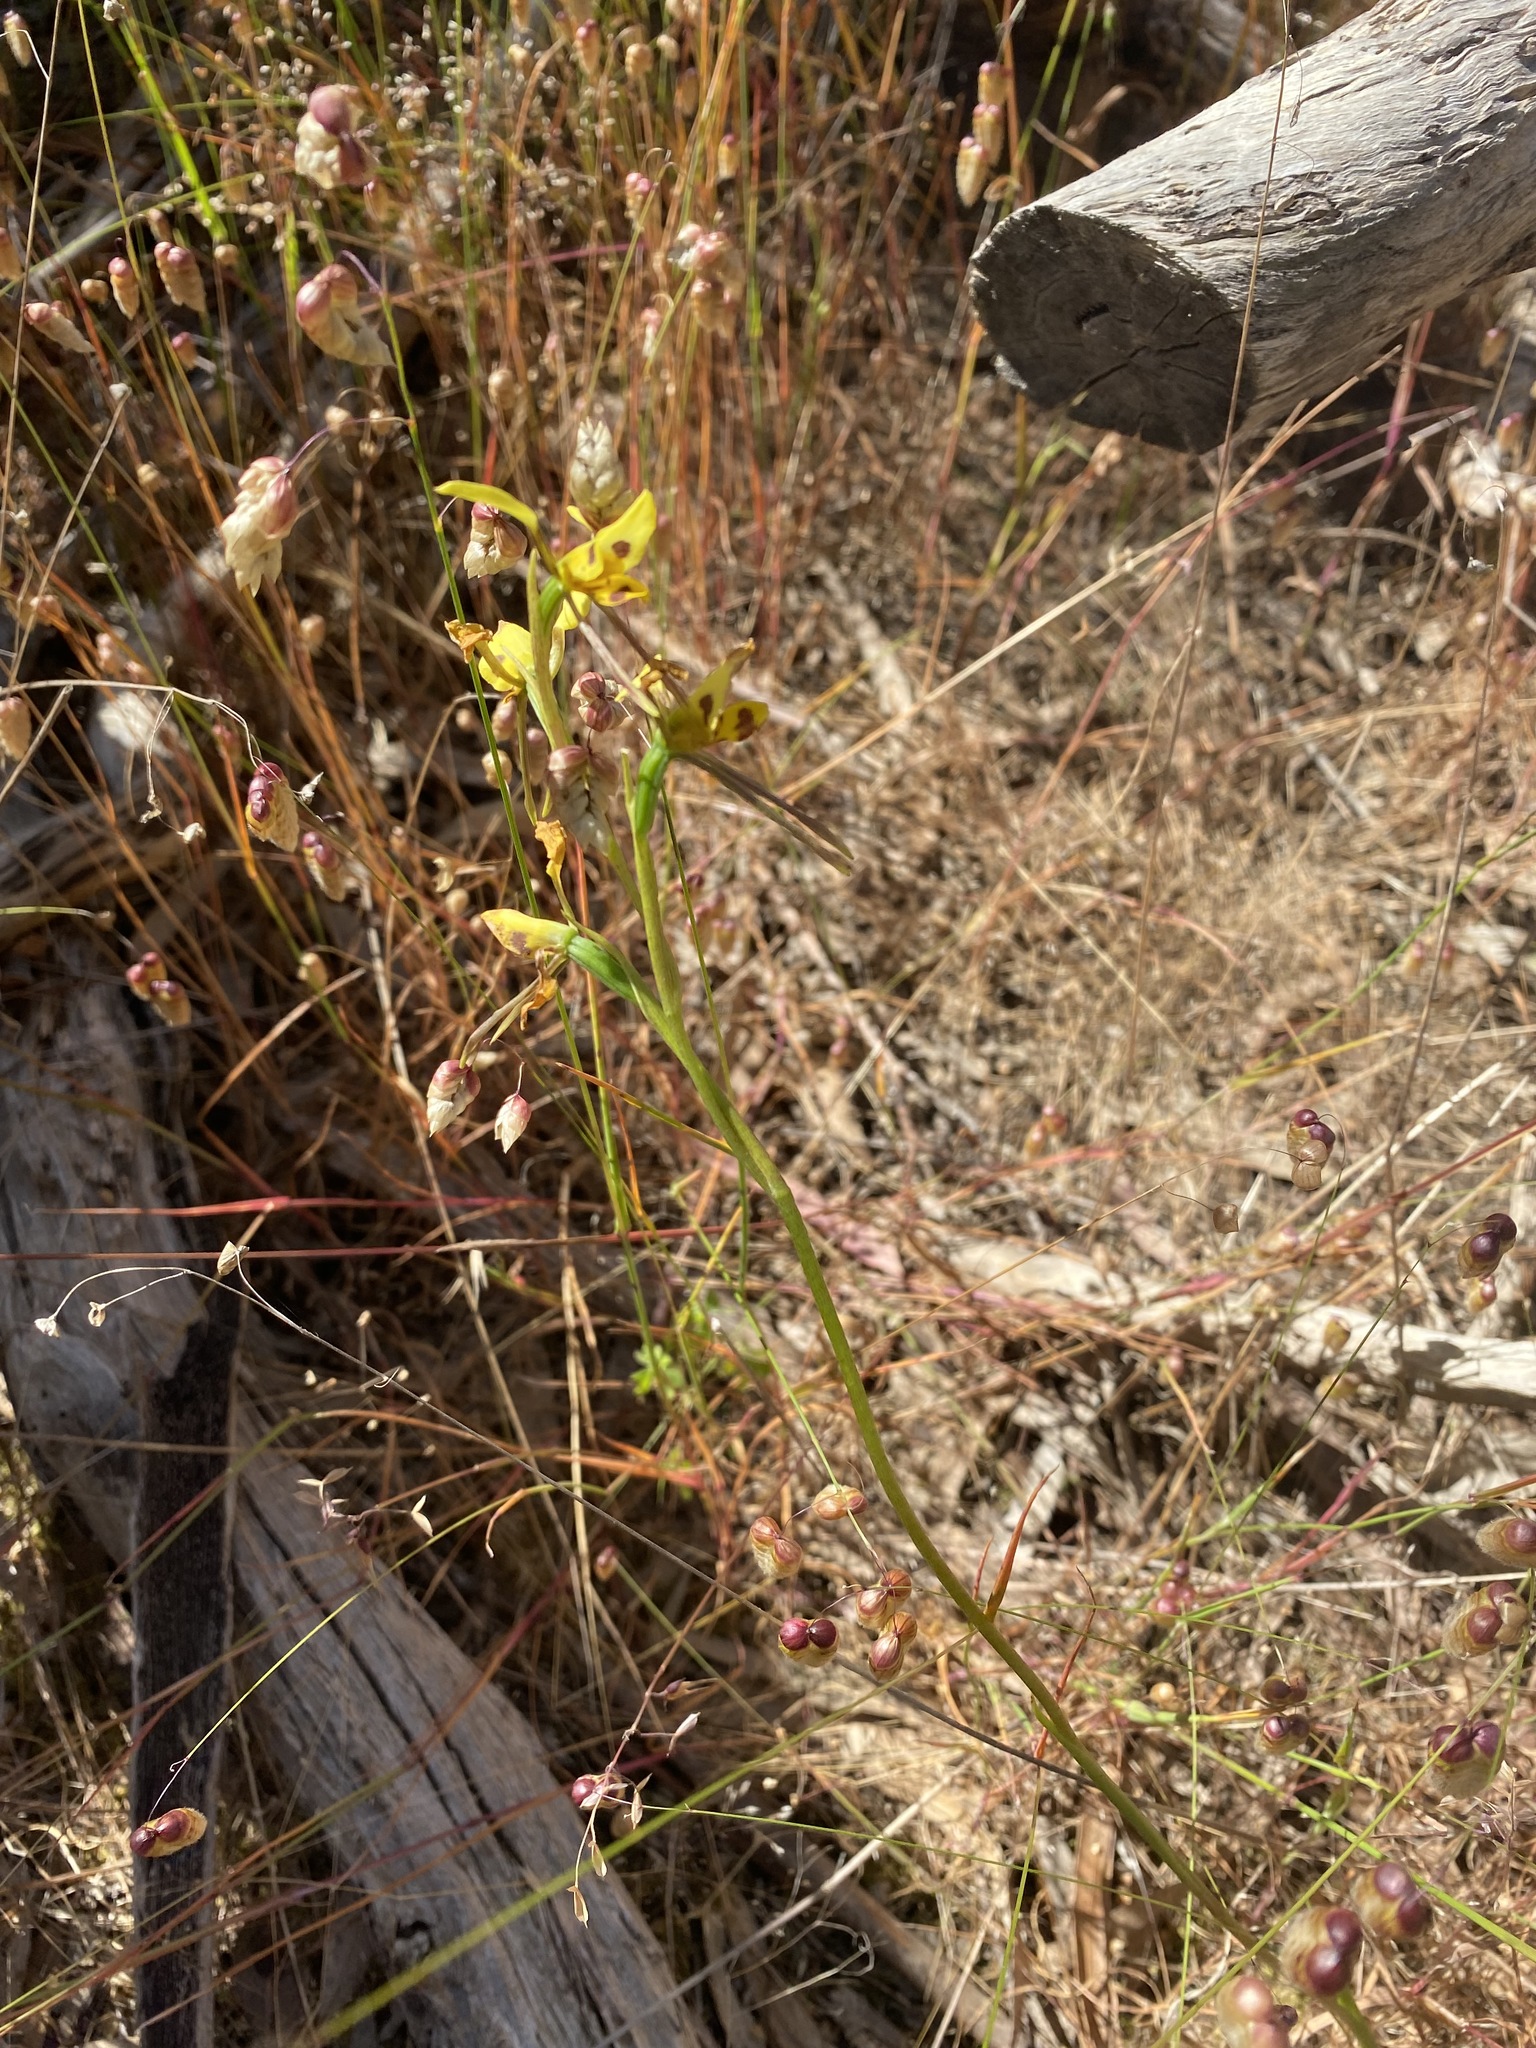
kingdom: Plantae
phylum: Tracheophyta
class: Liliopsida
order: Asparagales
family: Orchidaceae
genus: Diuris
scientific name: Diuris sulphurea
